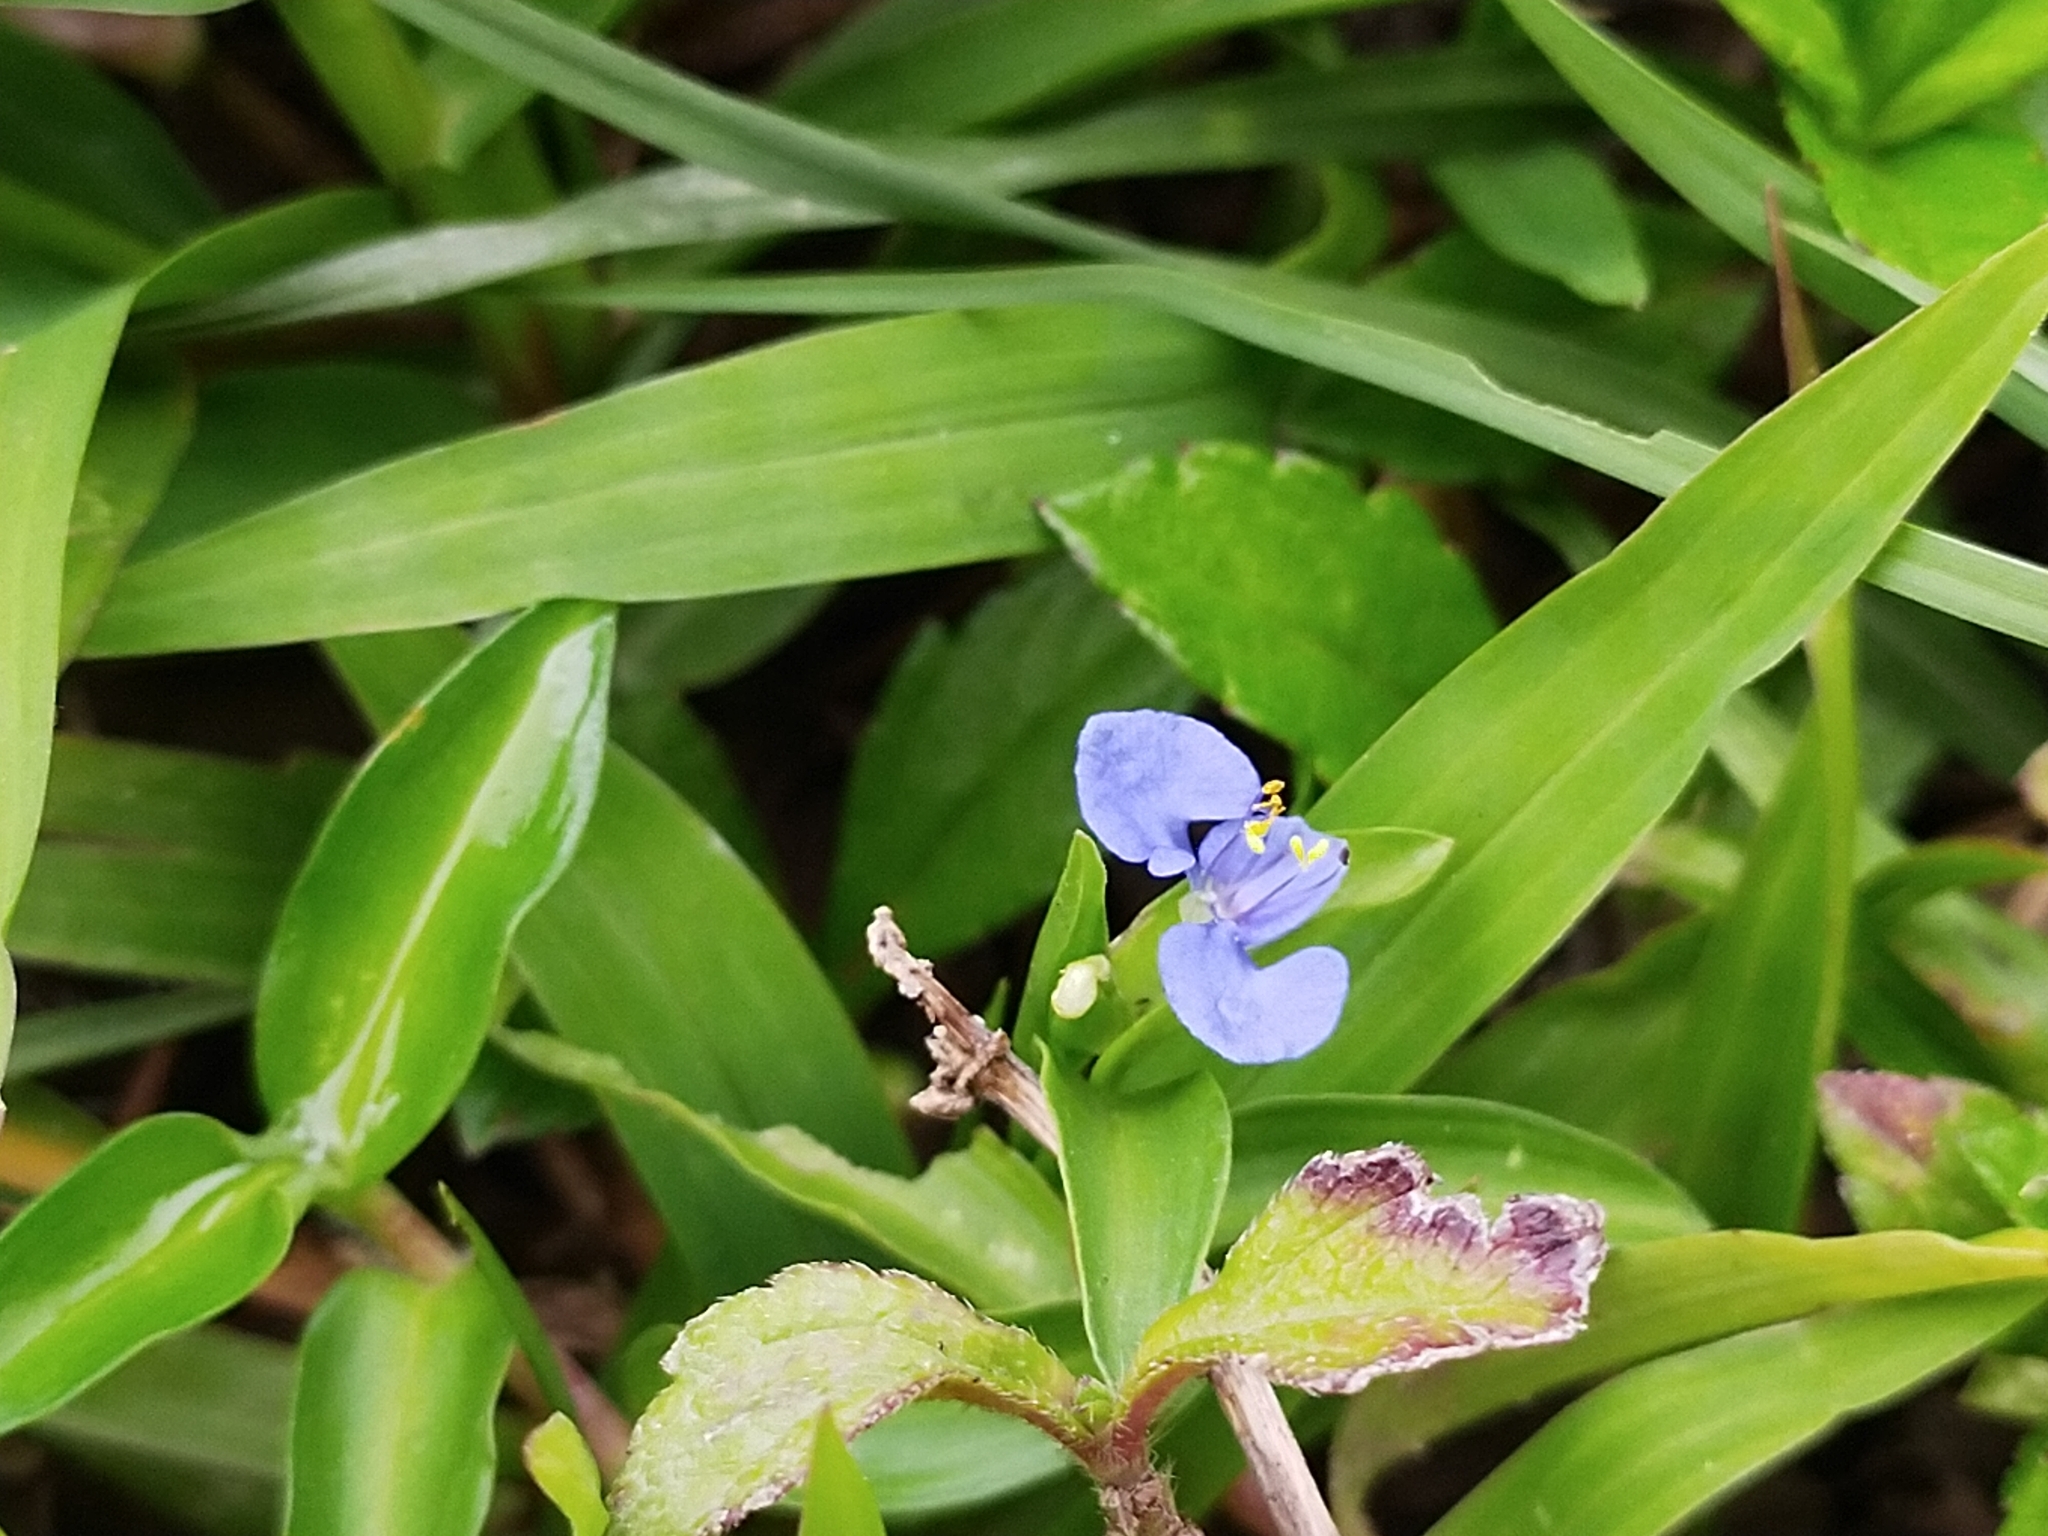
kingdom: Plantae
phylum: Tracheophyta
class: Liliopsida
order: Commelinales
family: Commelinaceae
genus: Commelina
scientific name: Commelina diffusa
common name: Climbing dayflower
